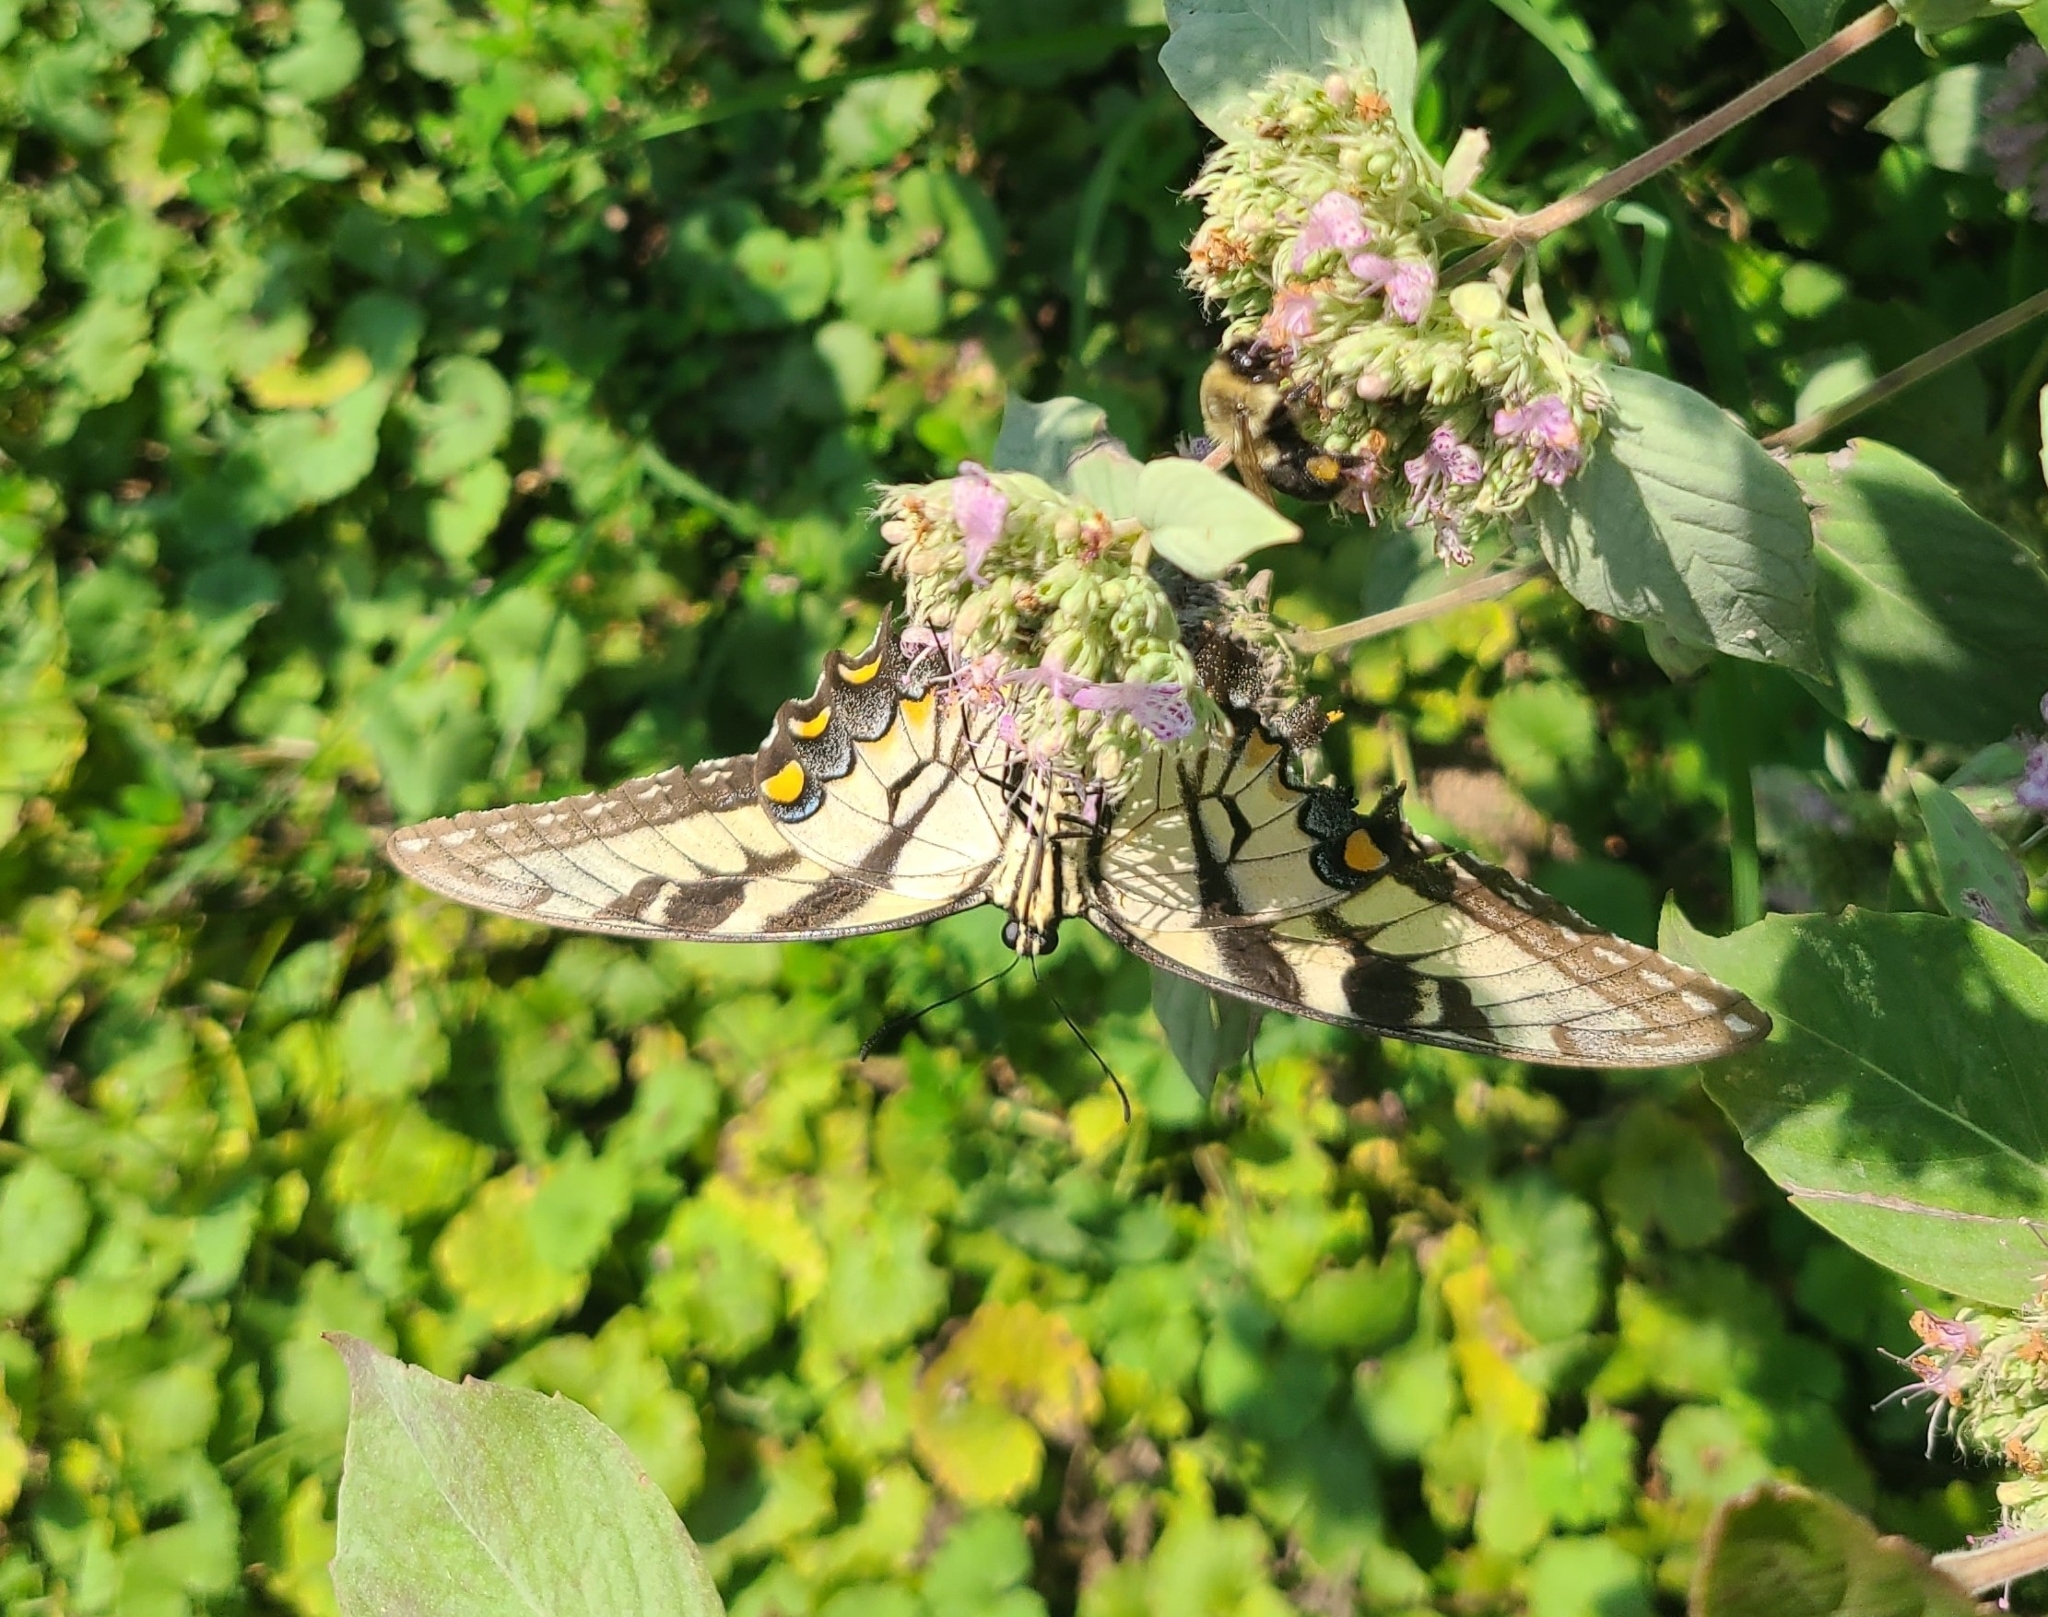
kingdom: Animalia
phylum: Arthropoda
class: Insecta
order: Lepidoptera
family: Papilionidae
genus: Papilio
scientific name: Papilio glaucus
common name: Tiger swallowtail
